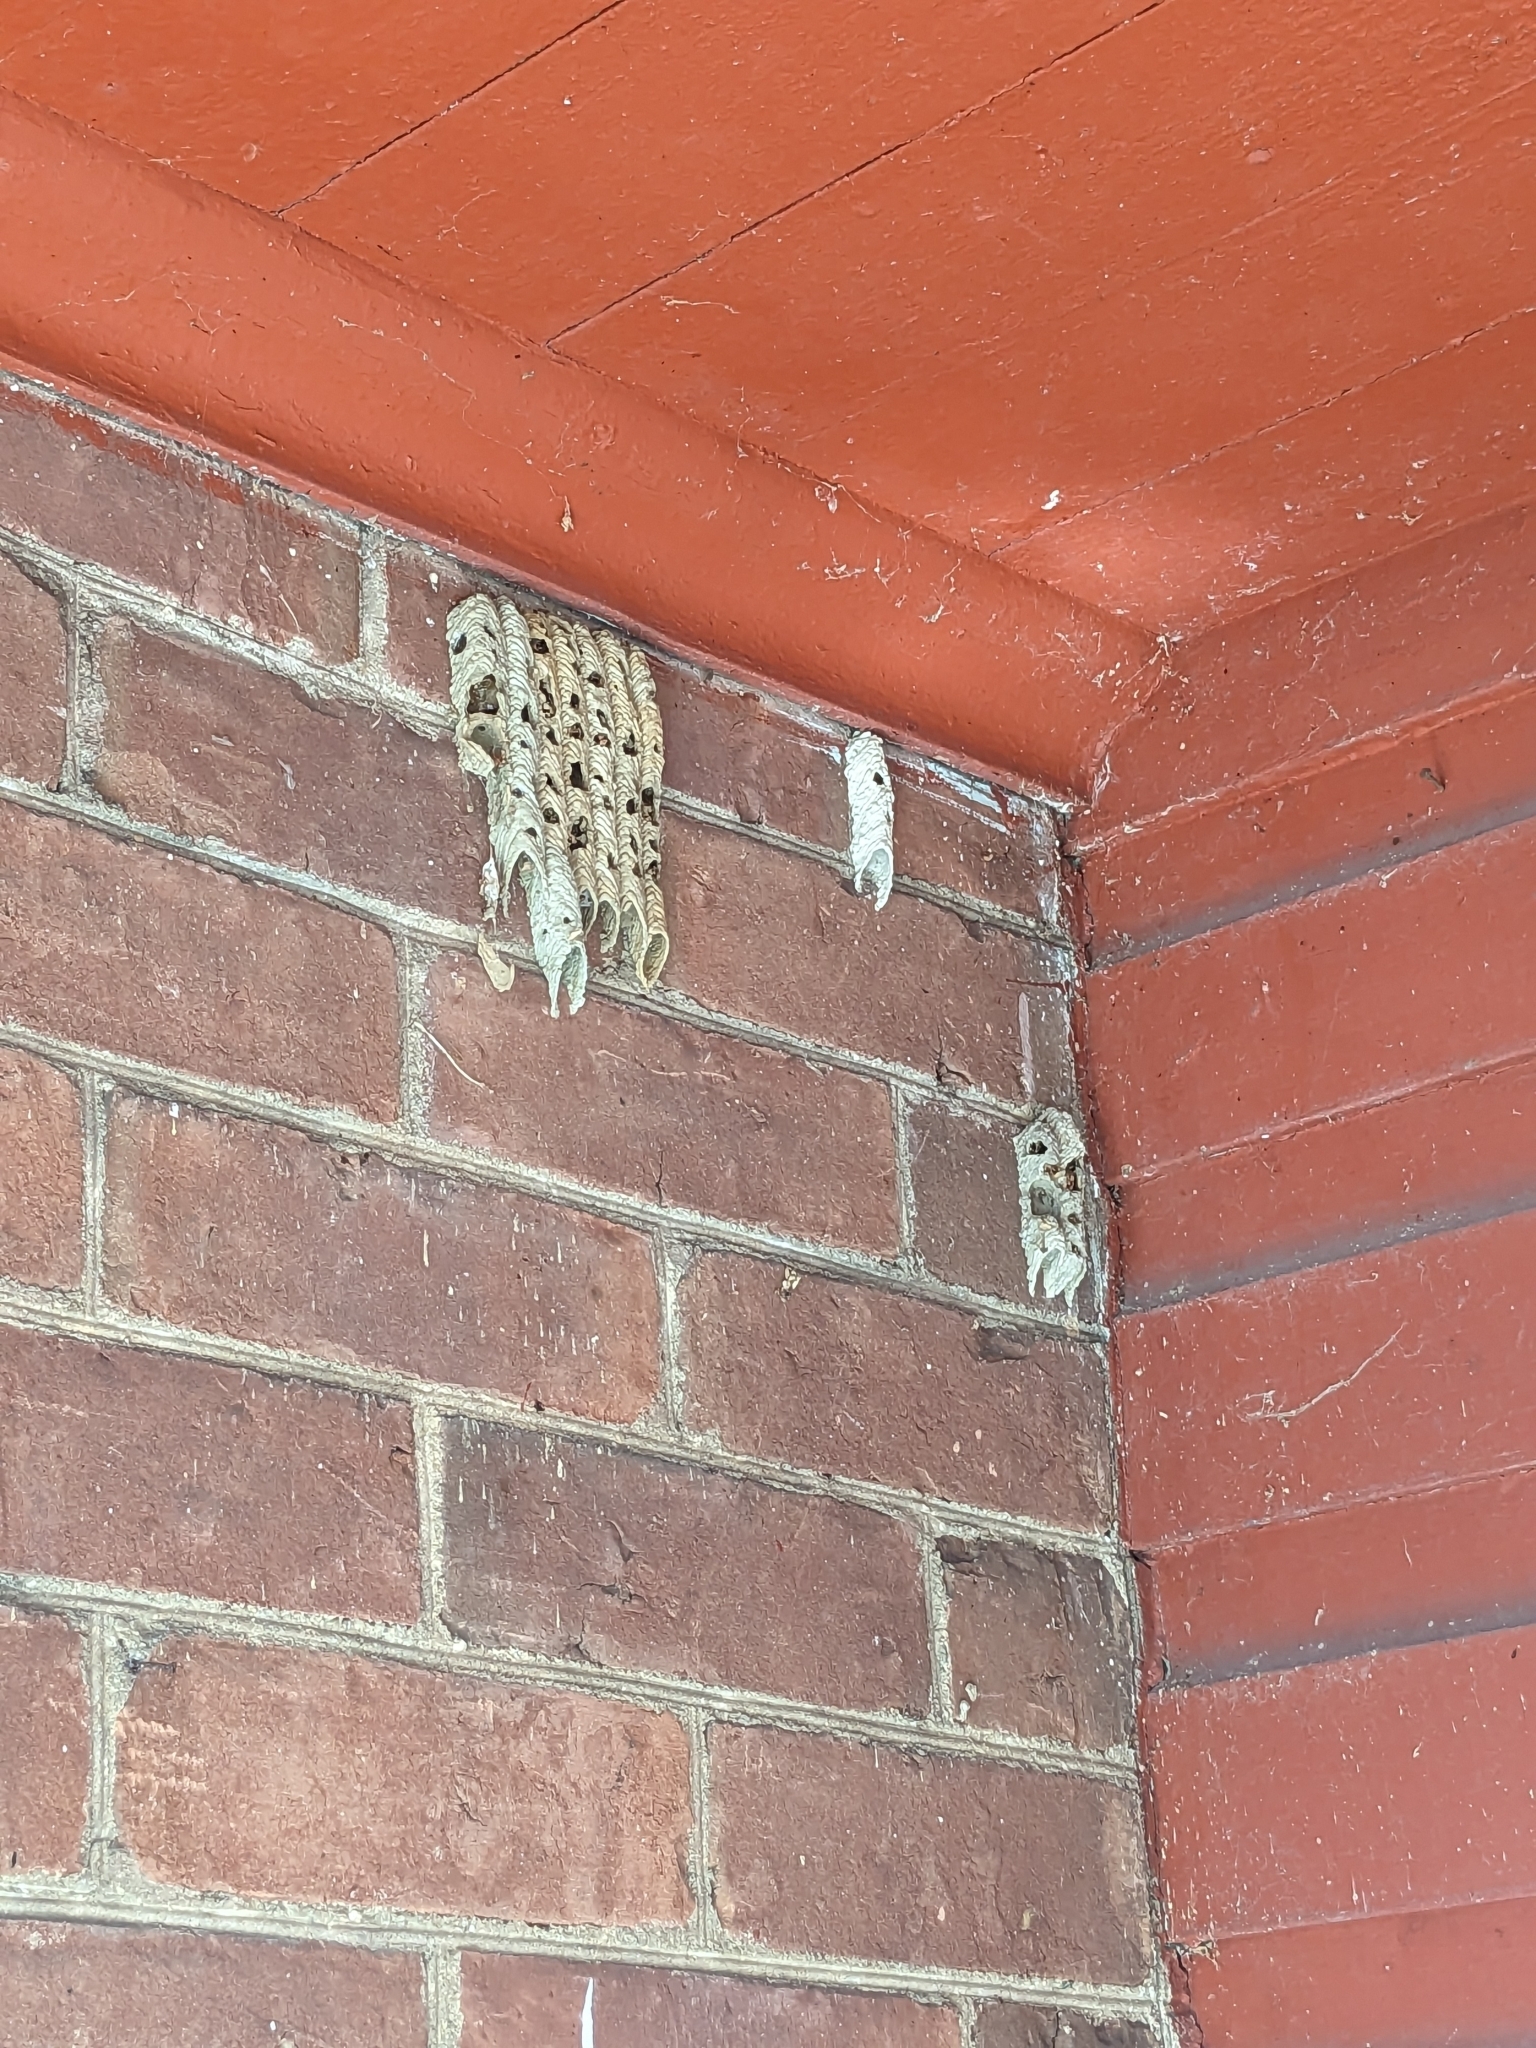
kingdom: Animalia
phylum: Arthropoda
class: Insecta
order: Hymenoptera
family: Crabronidae
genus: Trypoxylon
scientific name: Trypoxylon politum
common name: Organ-pipe mud-dauber wasp
